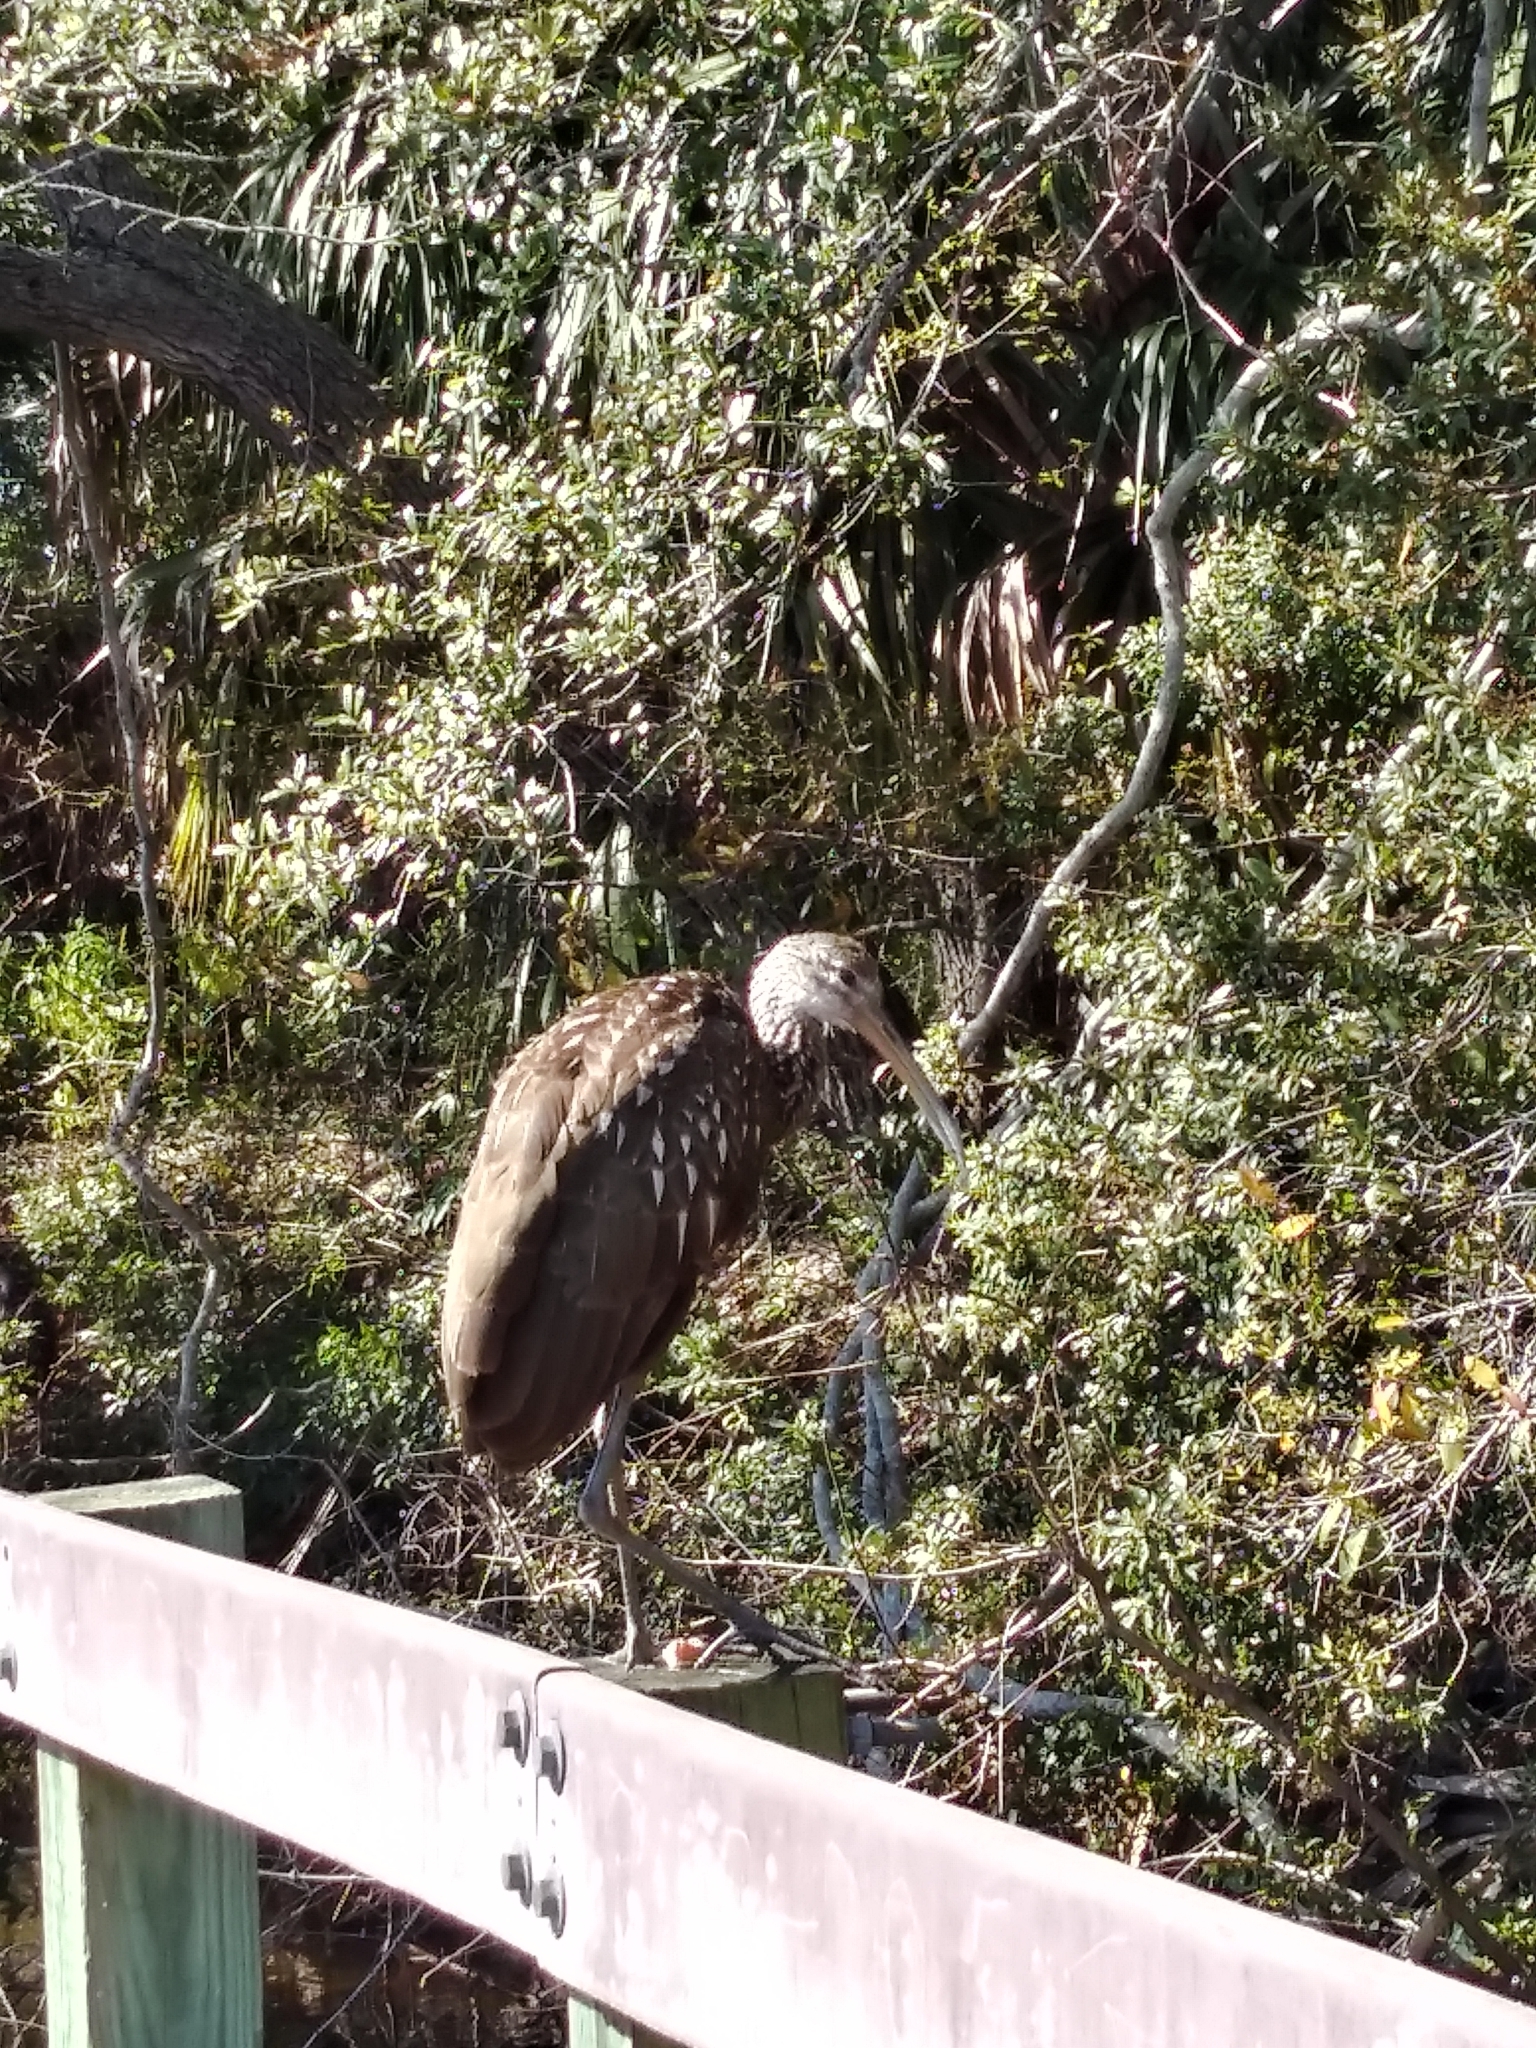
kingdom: Animalia
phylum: Chordata
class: Aves
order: Gruiformes
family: Aramidae
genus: Aramus
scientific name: Aramus guarauna
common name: Limpkin
